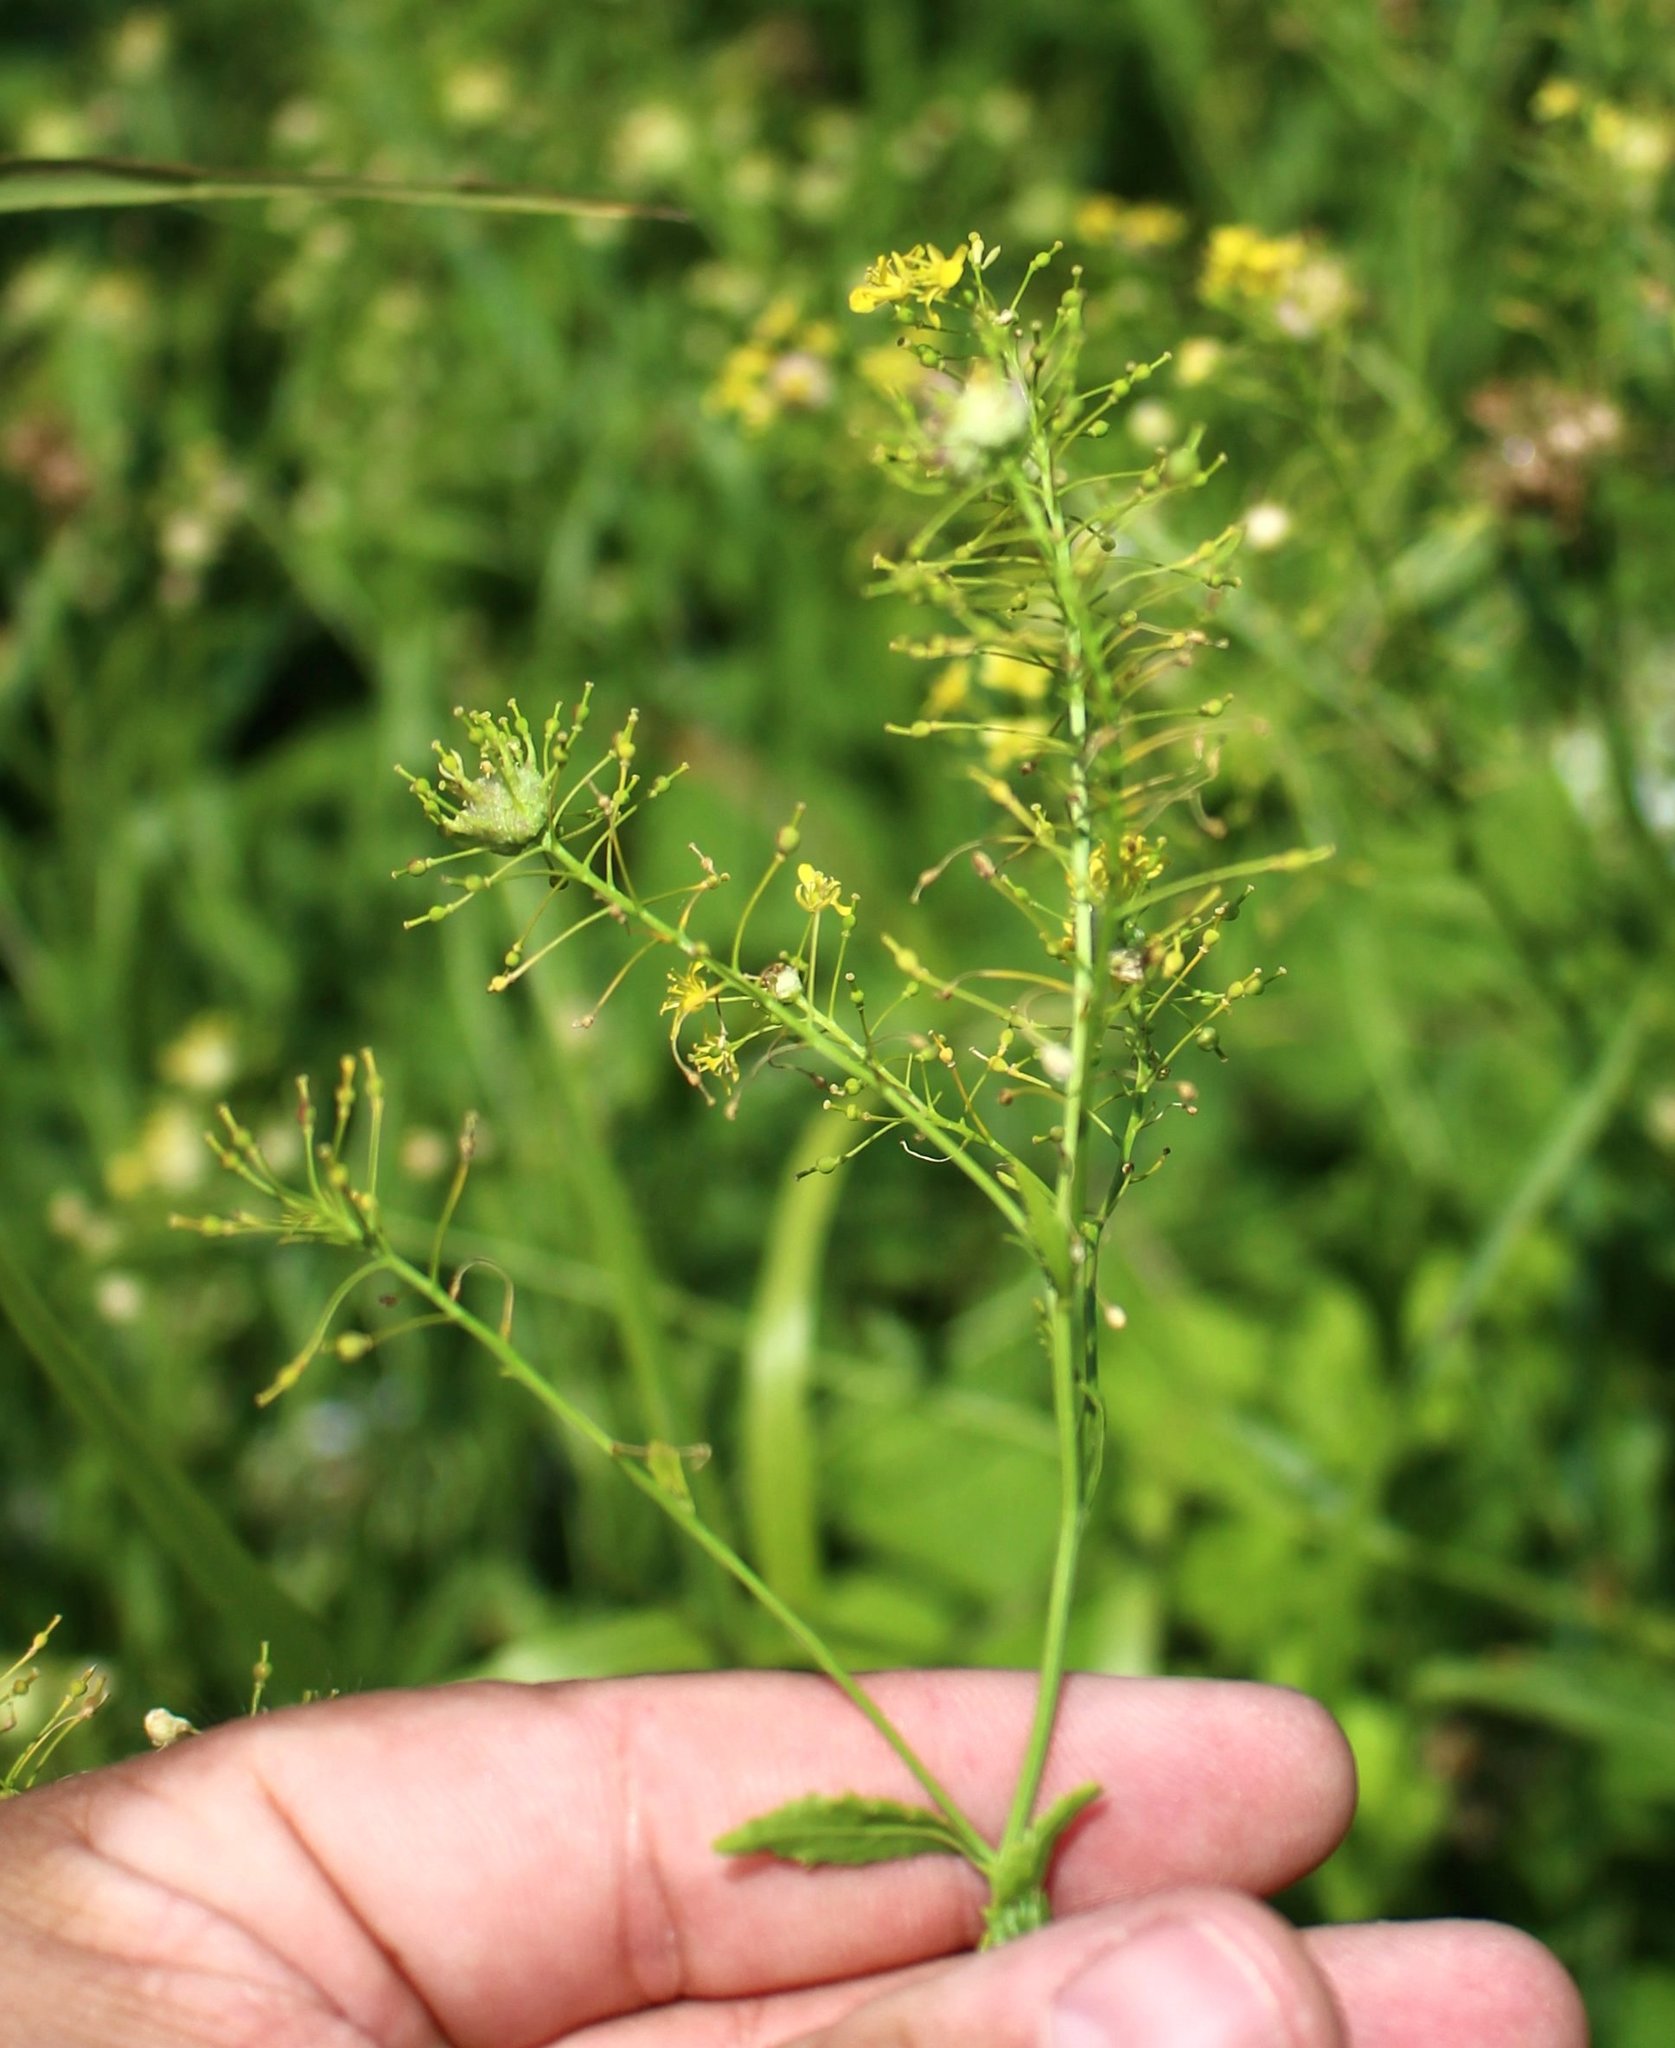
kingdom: Plantae
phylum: Tracheophyta
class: Magnoliopsida
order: Brassicales
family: Brassicaceae
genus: Rorippa
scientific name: Rorippa austriaca
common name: Austrian yellow-cress
